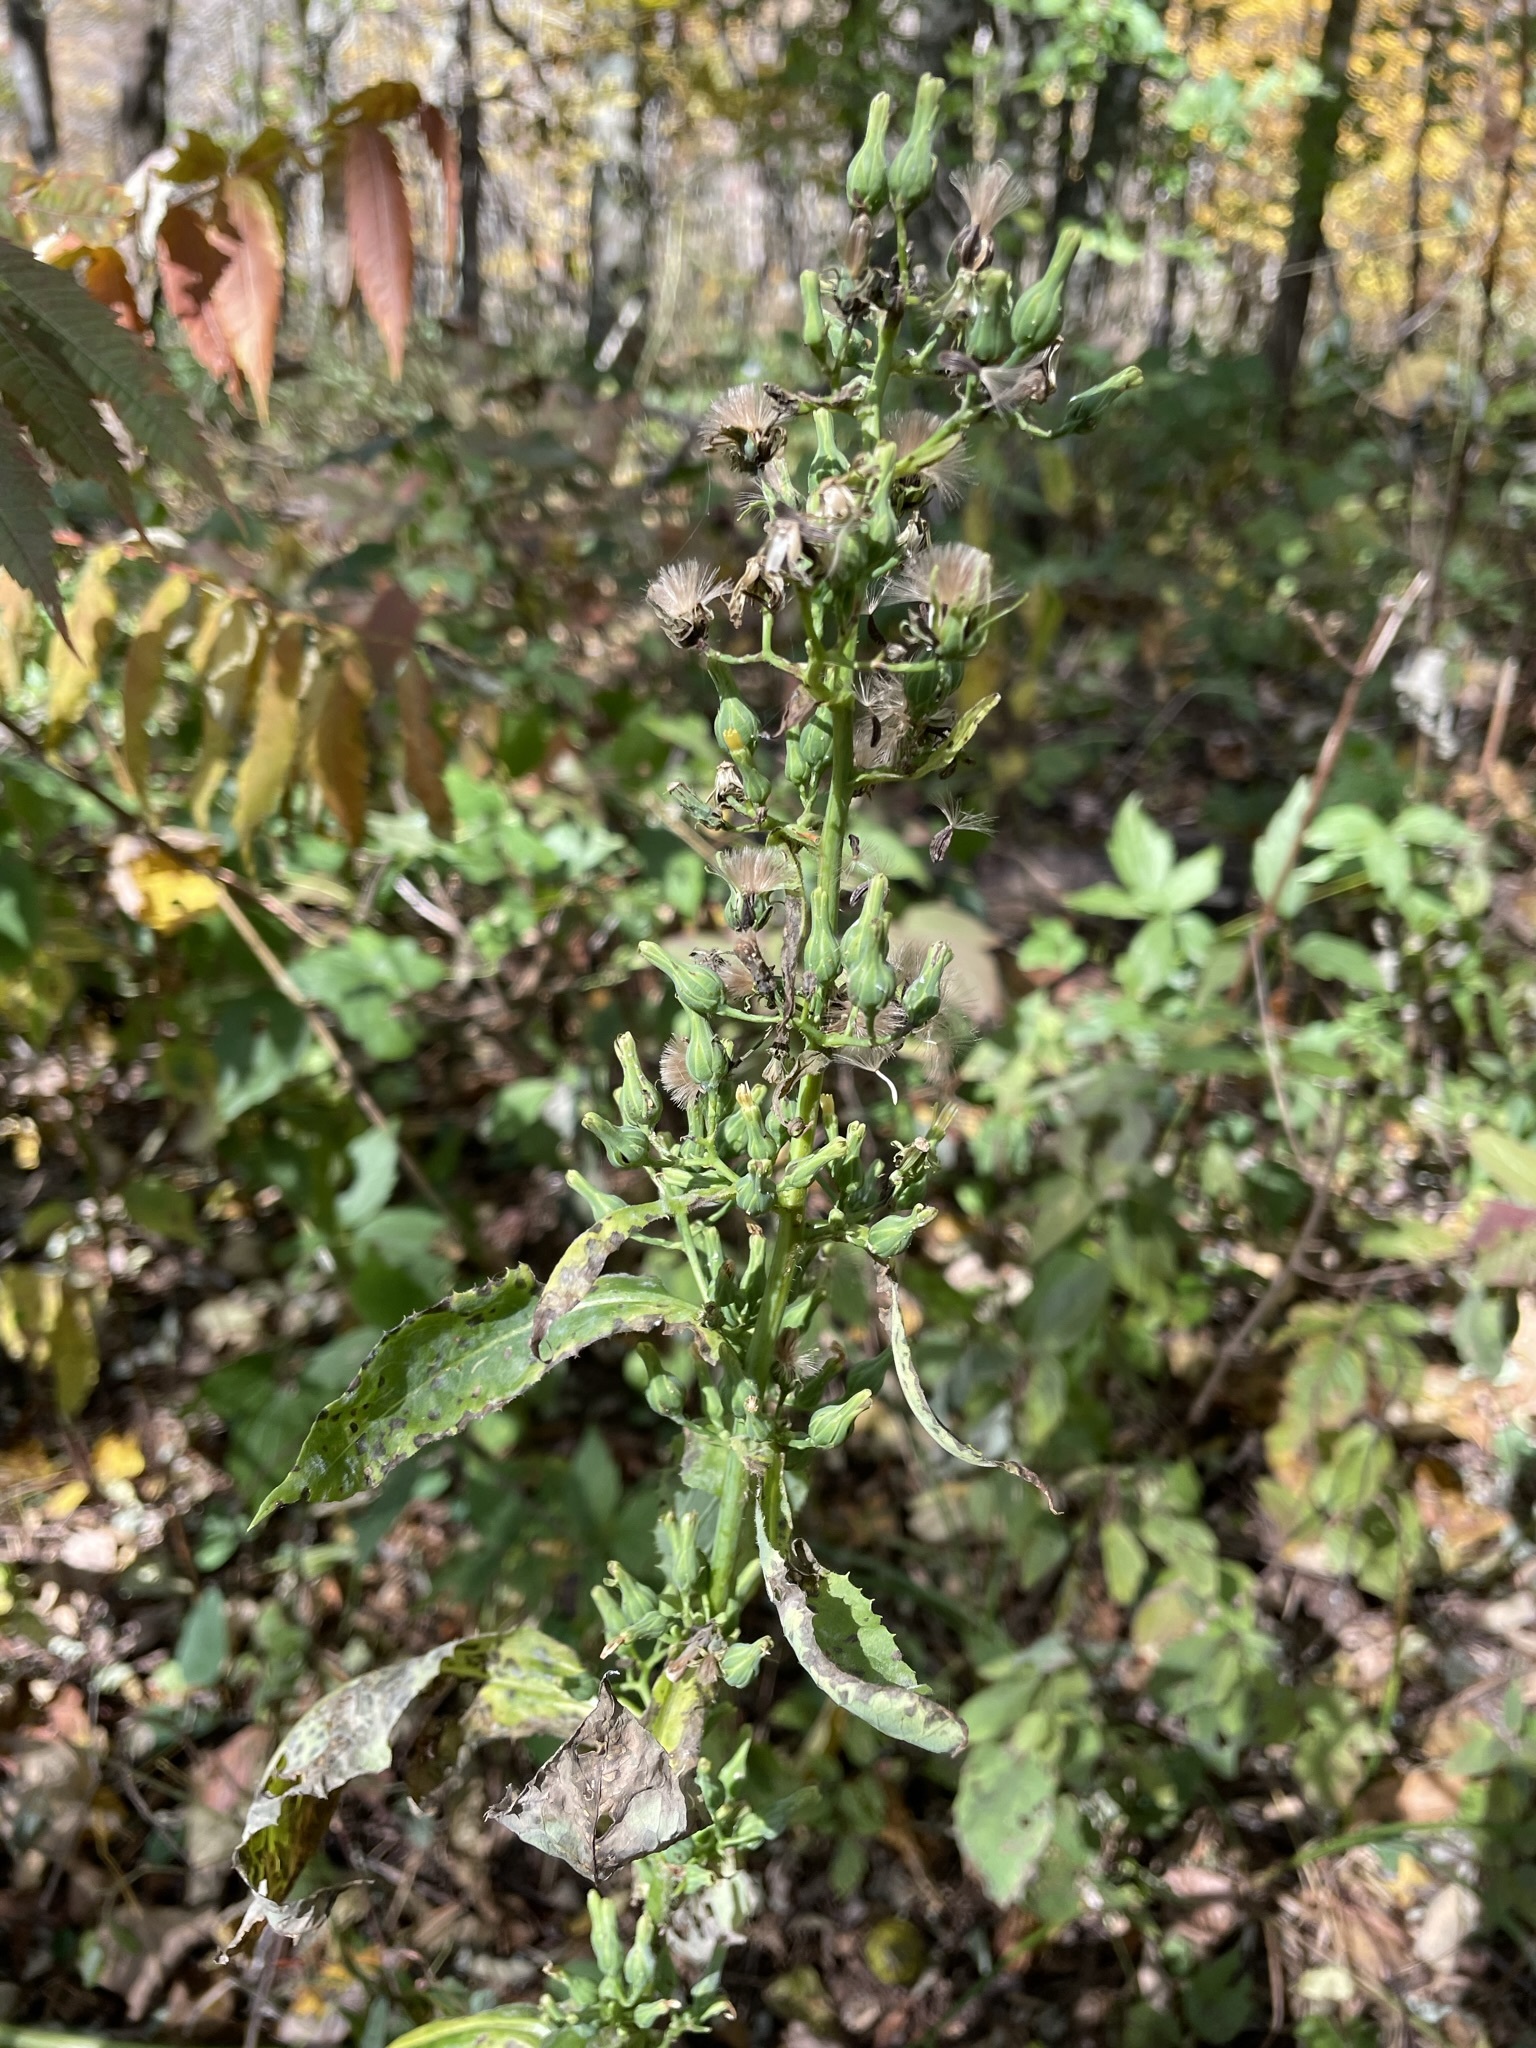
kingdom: Plantae
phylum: Tracheophyta
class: Magnoliopsida
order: Asterales
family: Asteraceae
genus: Lactuca
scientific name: Lactuca biennis
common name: Blue wood lettuce
